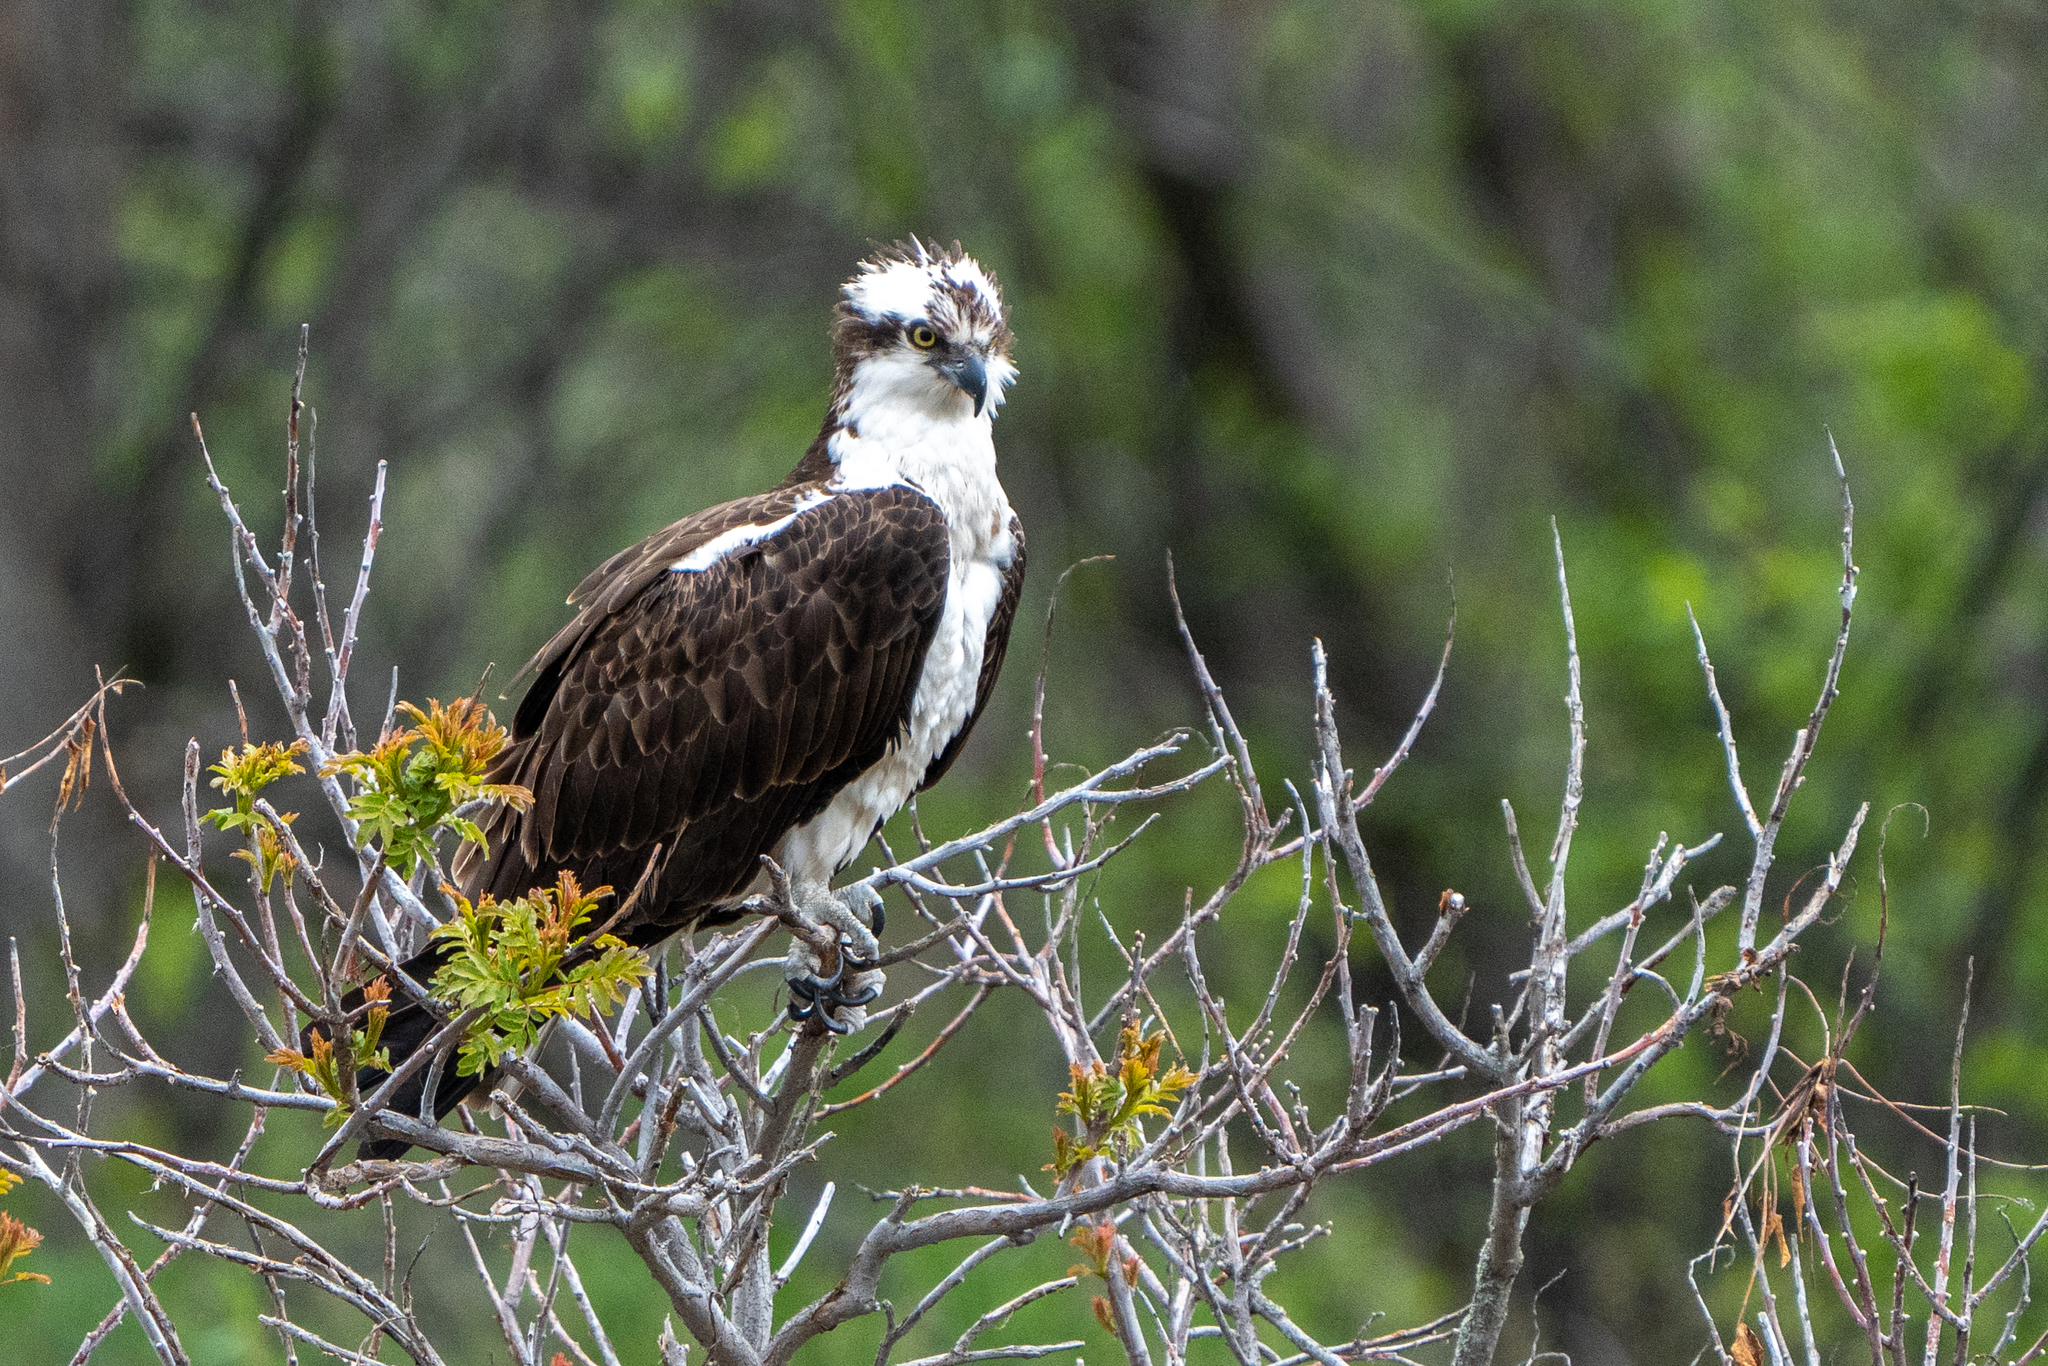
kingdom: Animalia
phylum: Chordata
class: Aves
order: Accipitriformes
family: Pandionidae
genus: Pandion
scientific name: Pandion haliaetus
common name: Osprey
